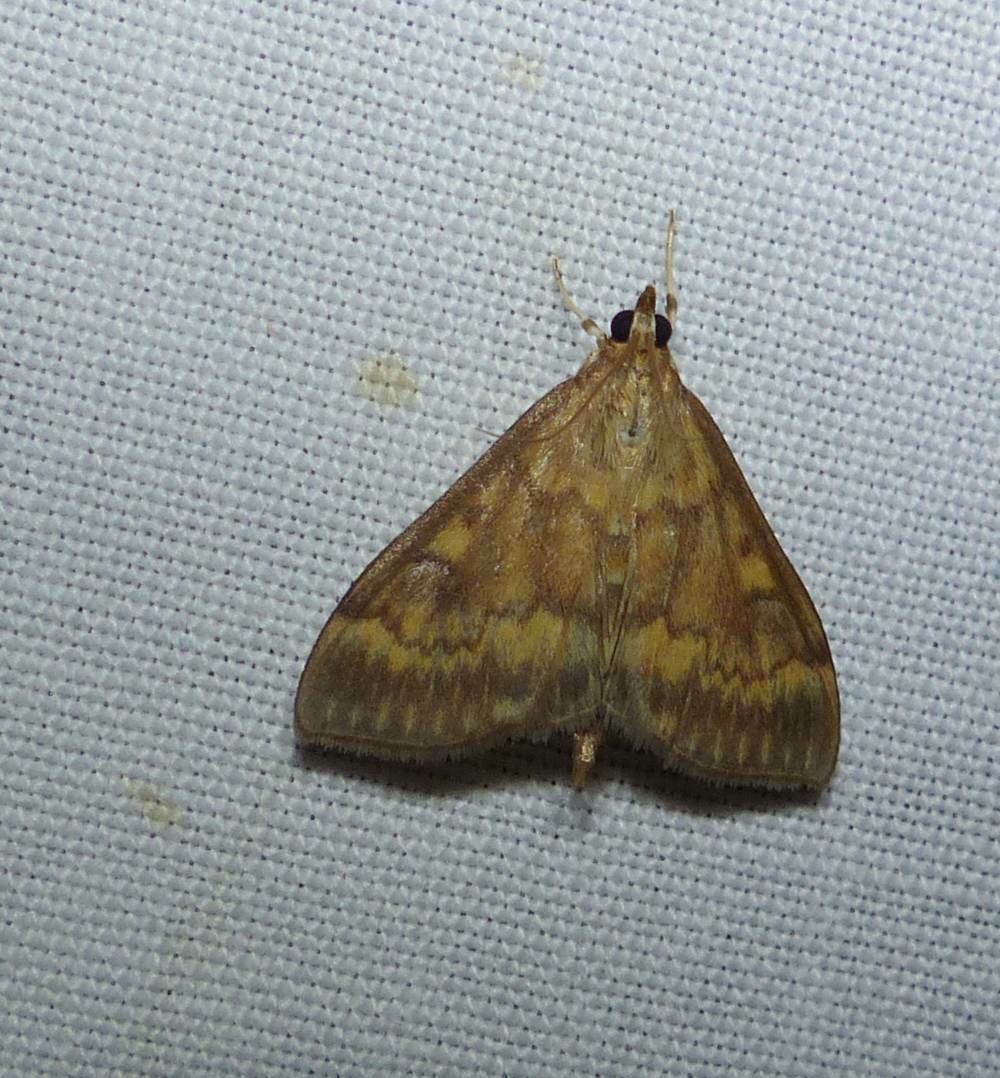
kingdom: Animalia
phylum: Arthropoda
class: Insecta
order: Lepidoptera
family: Crambidae
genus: Ostrinia
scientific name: Ostrinia nubilalis
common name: European corn borer
